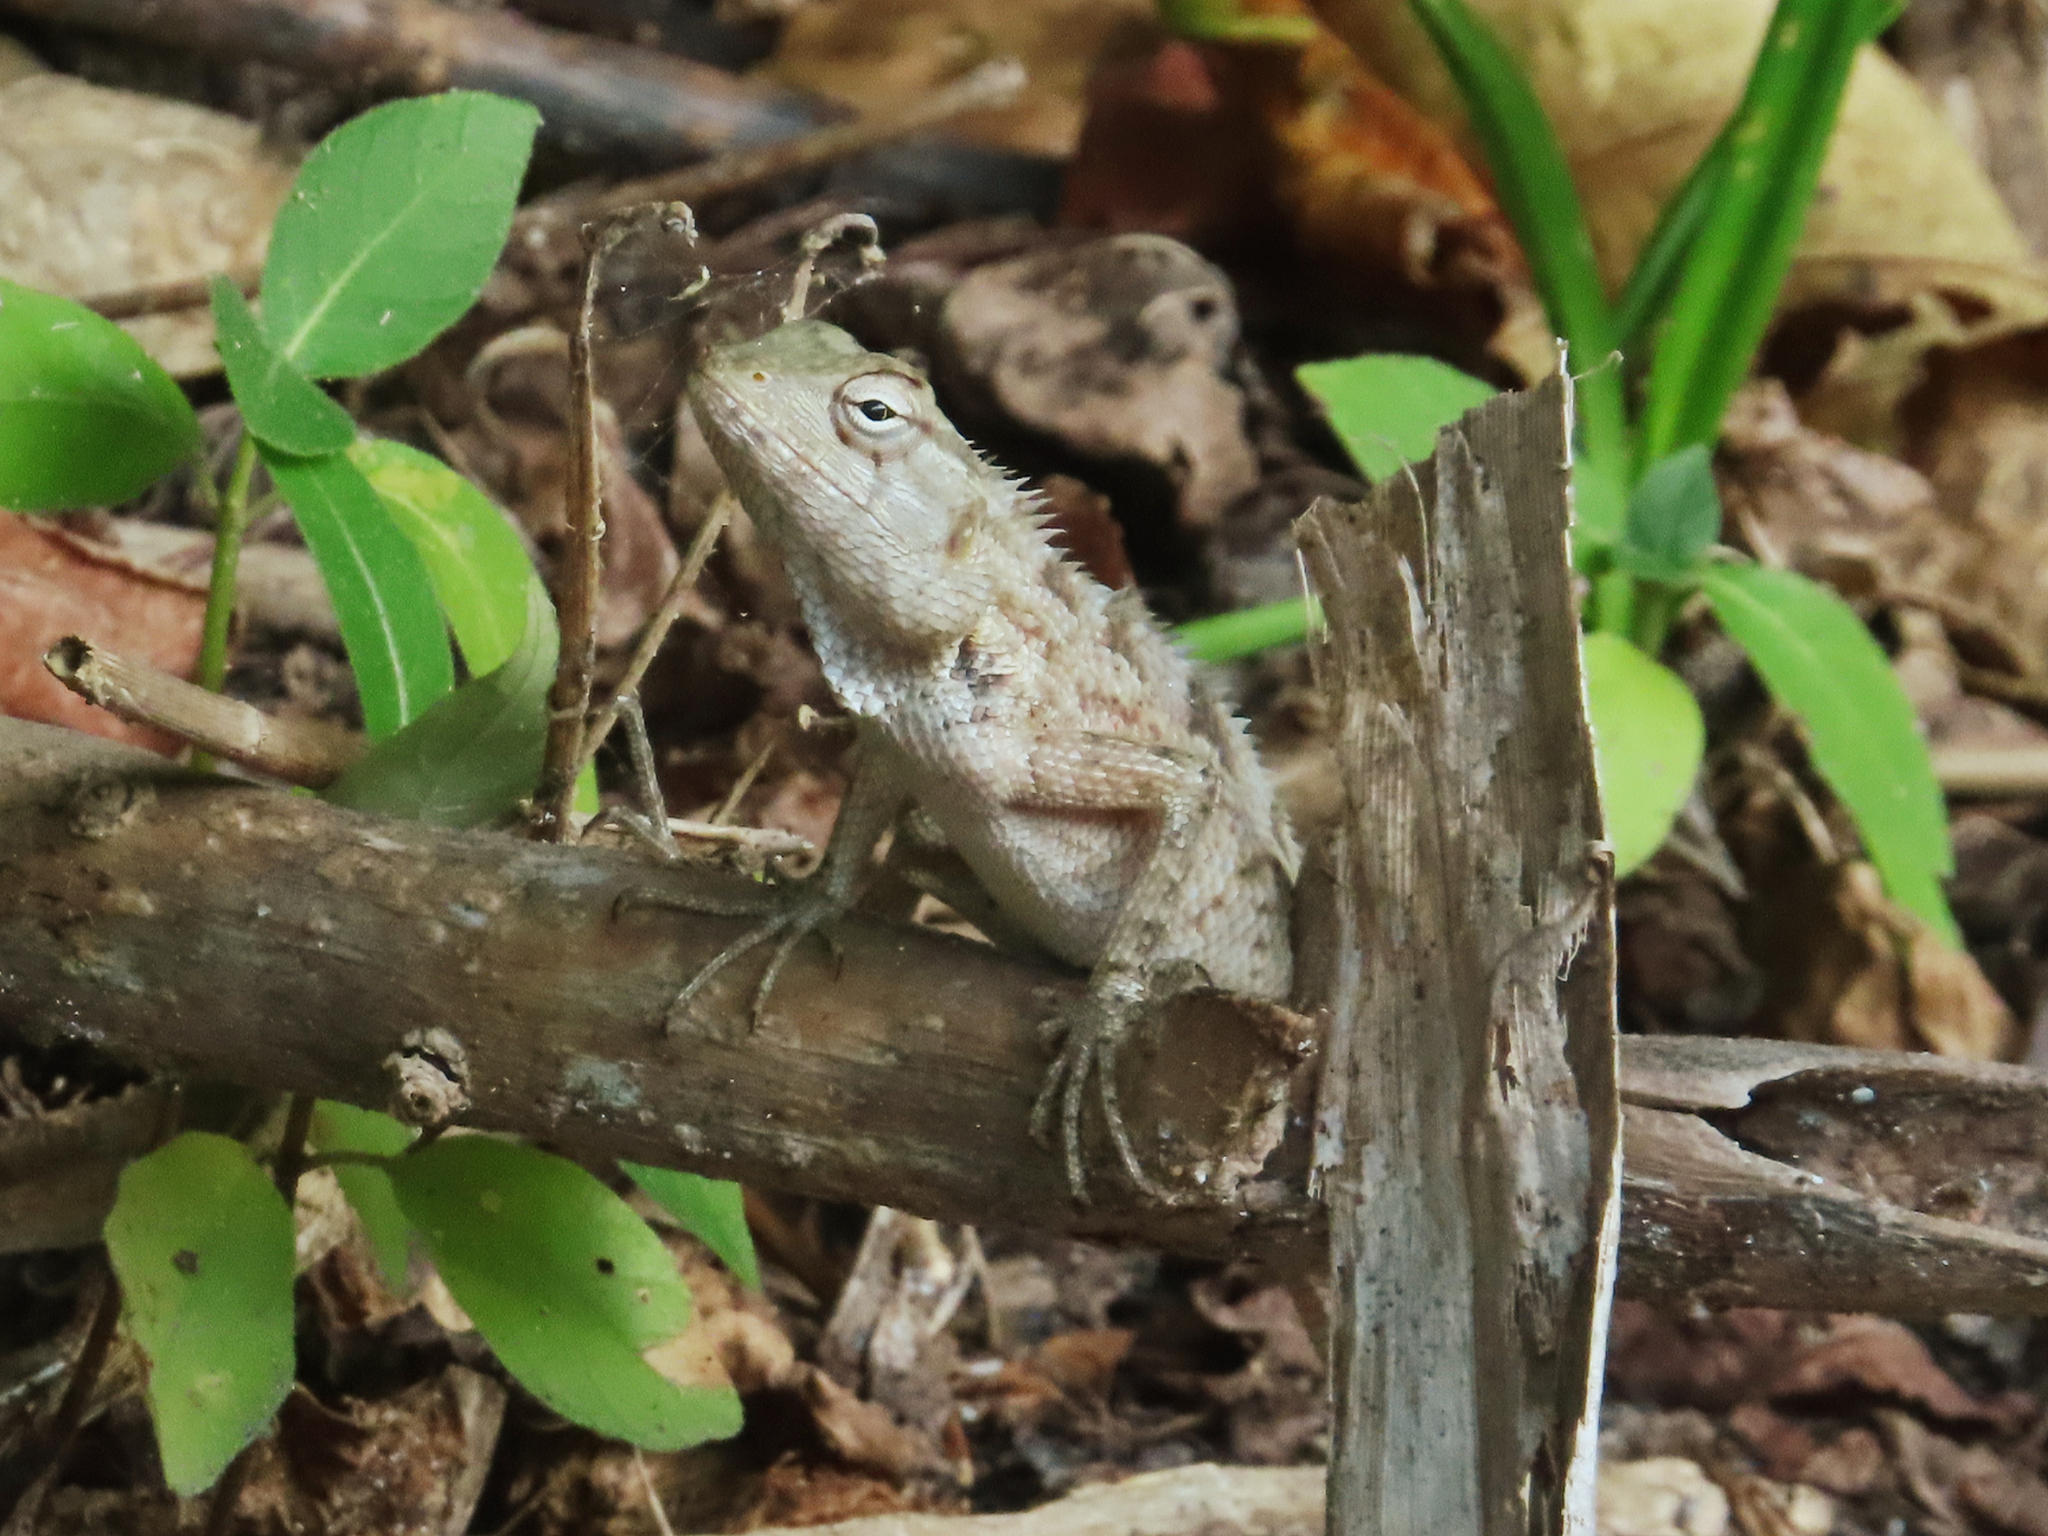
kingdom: Animalia
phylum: Chordata
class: Squamata
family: Agamidae
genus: Calotes
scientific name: Calotes versicolor
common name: Oriental garden lizard
